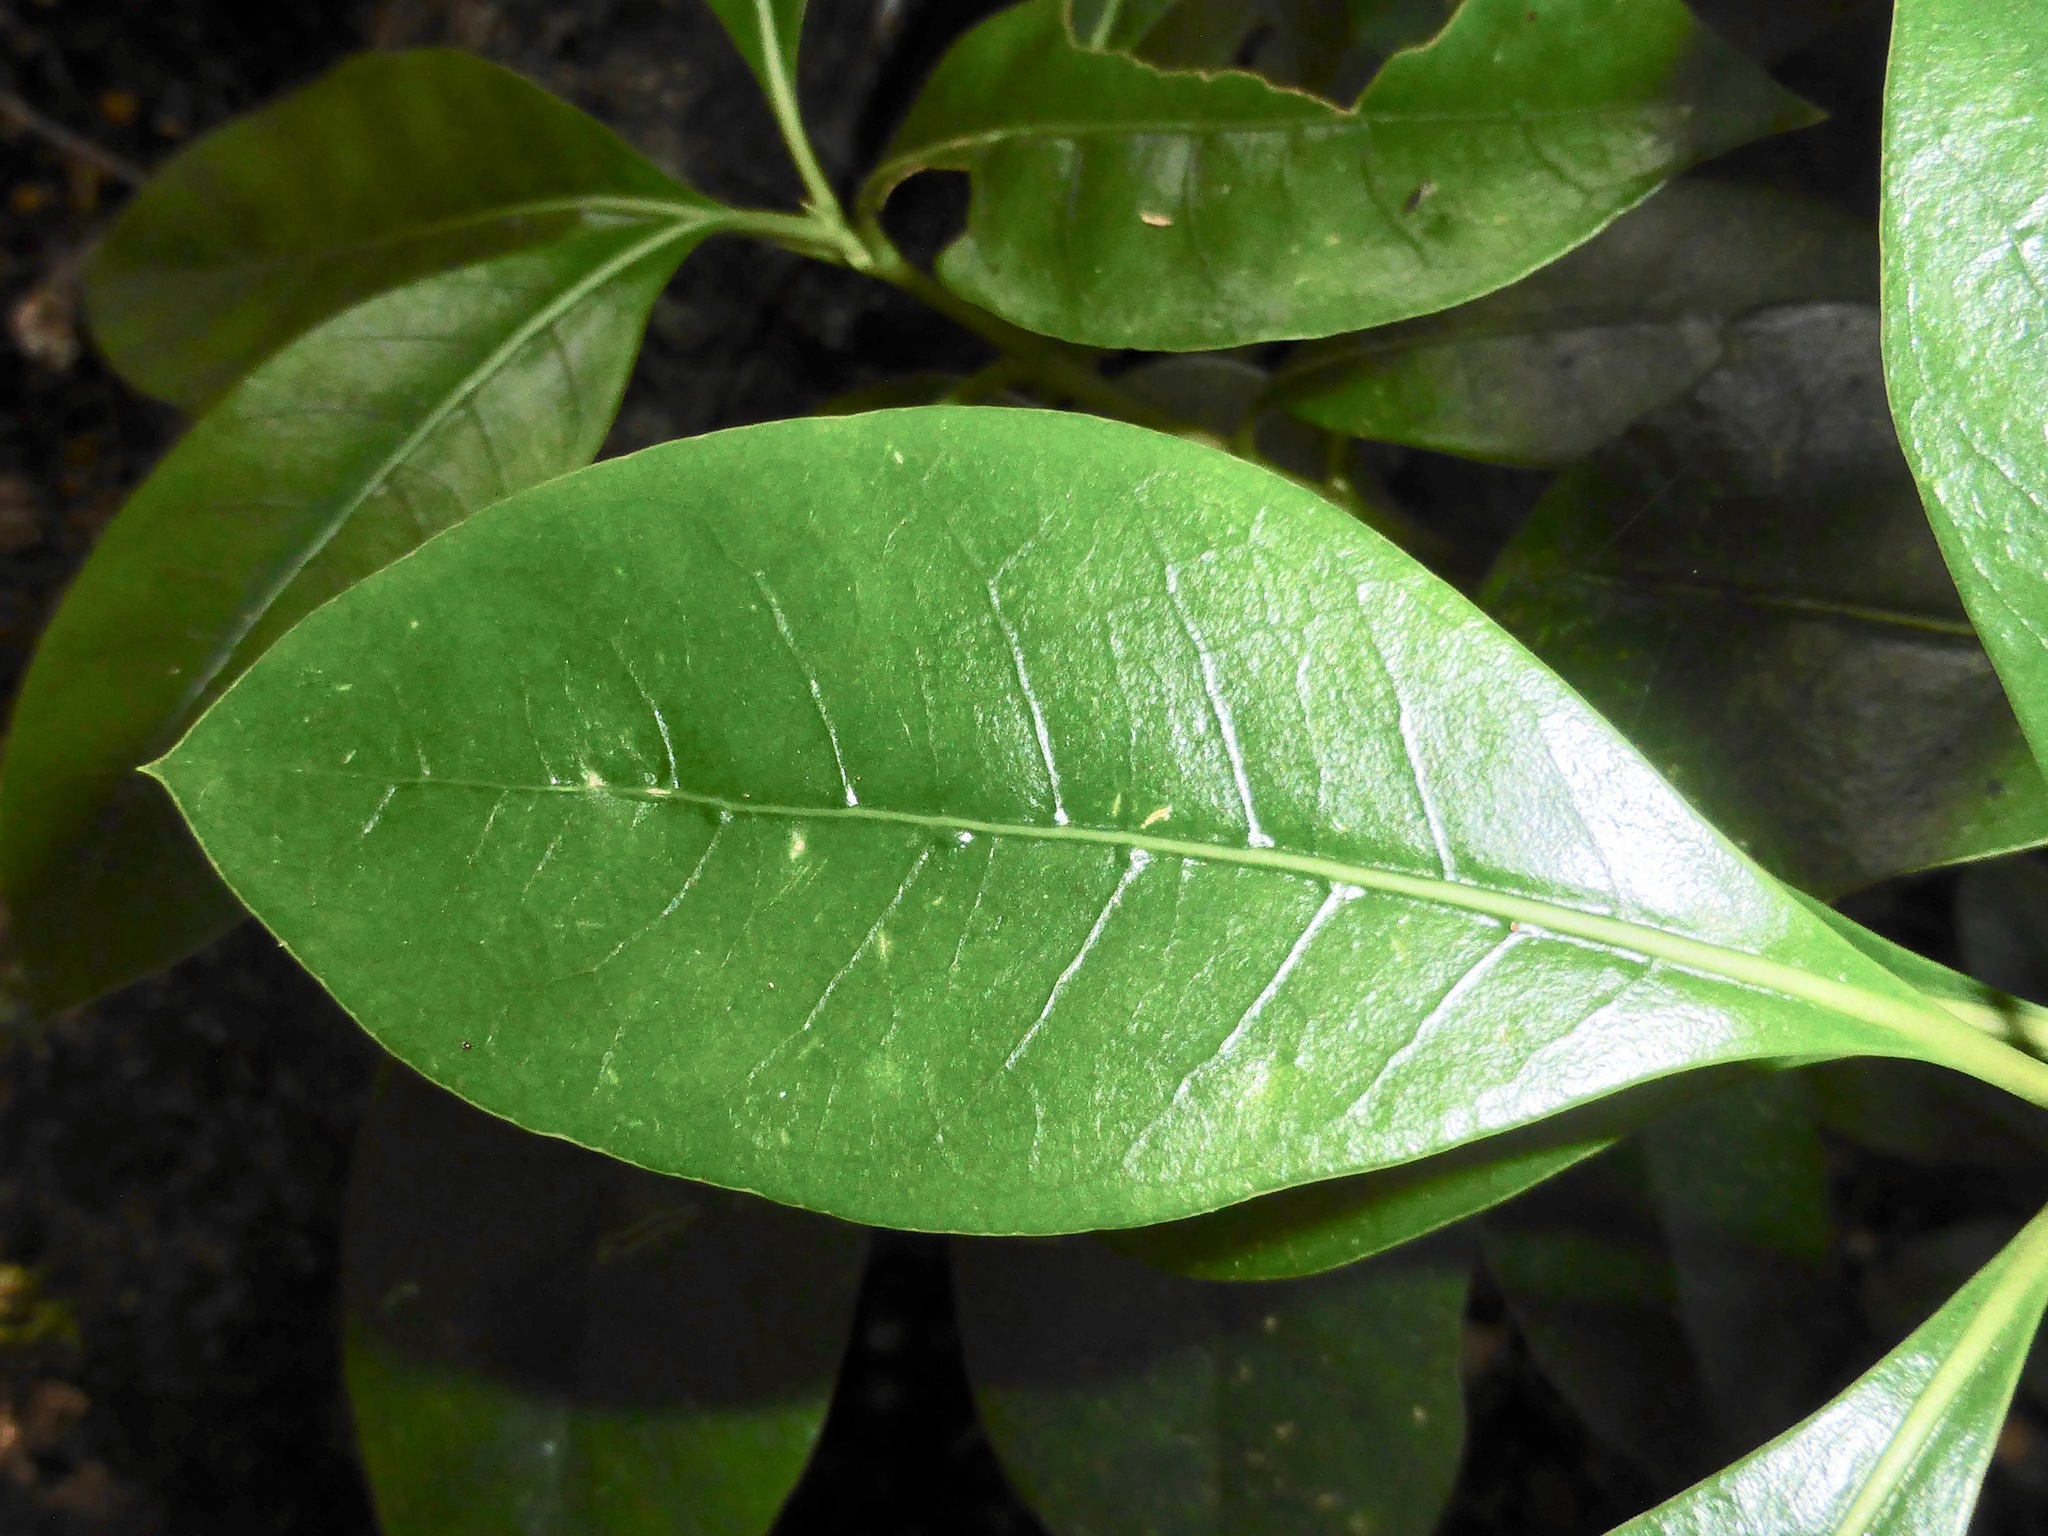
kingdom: Plantae
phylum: Tracheophyta
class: Magnoliopsida
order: Gentianales
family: Rubiaceae
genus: Coprosma
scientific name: Coprosma lucida
